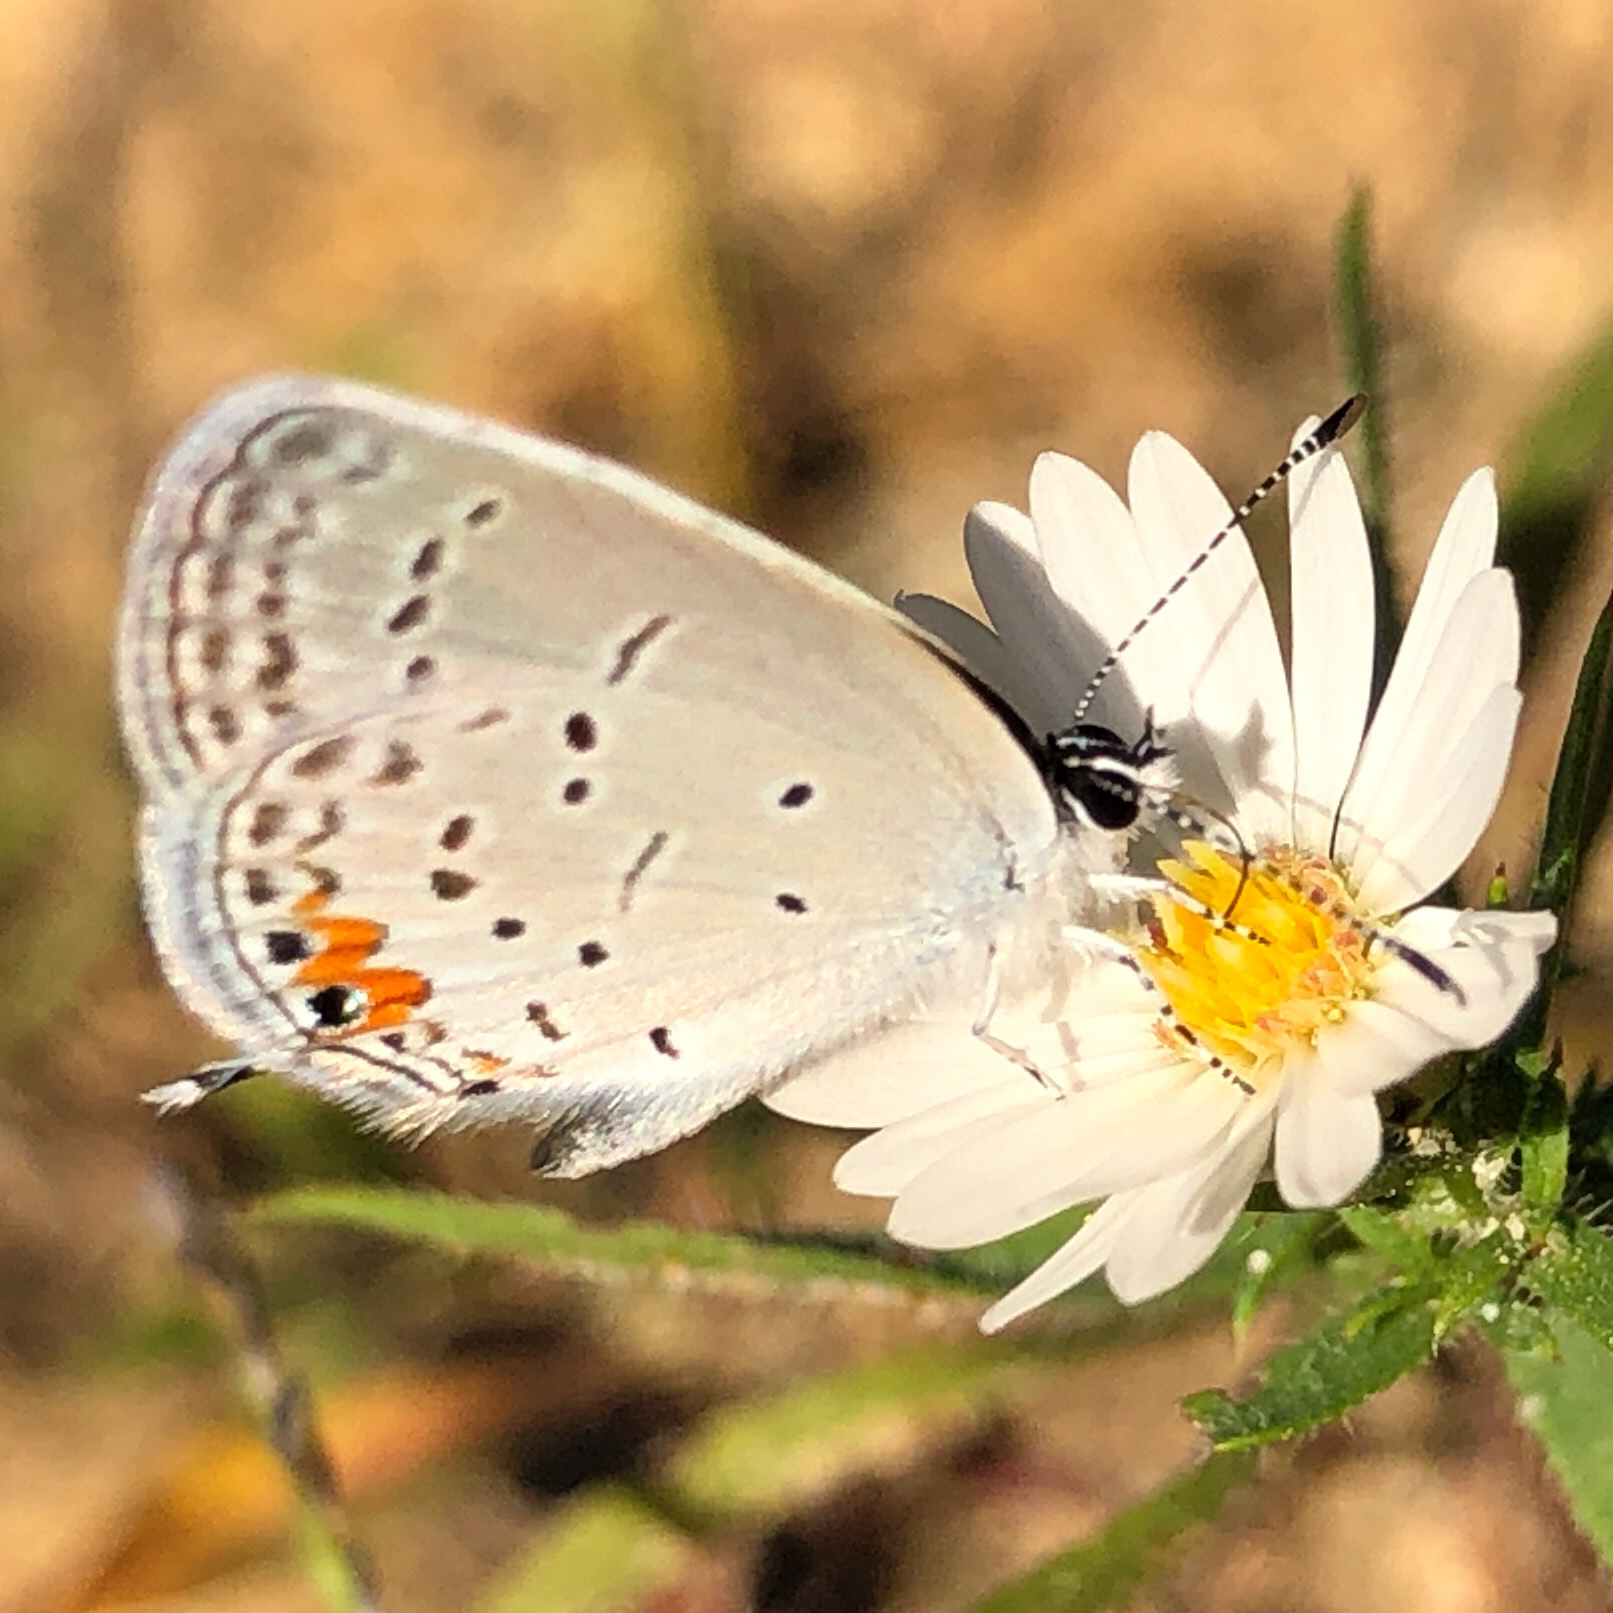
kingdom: Animalia
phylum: Arthropoda
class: Insecta
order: Lepidoptera
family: Lycaenidae
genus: Elkalyce
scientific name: Elkalyce comyntas
